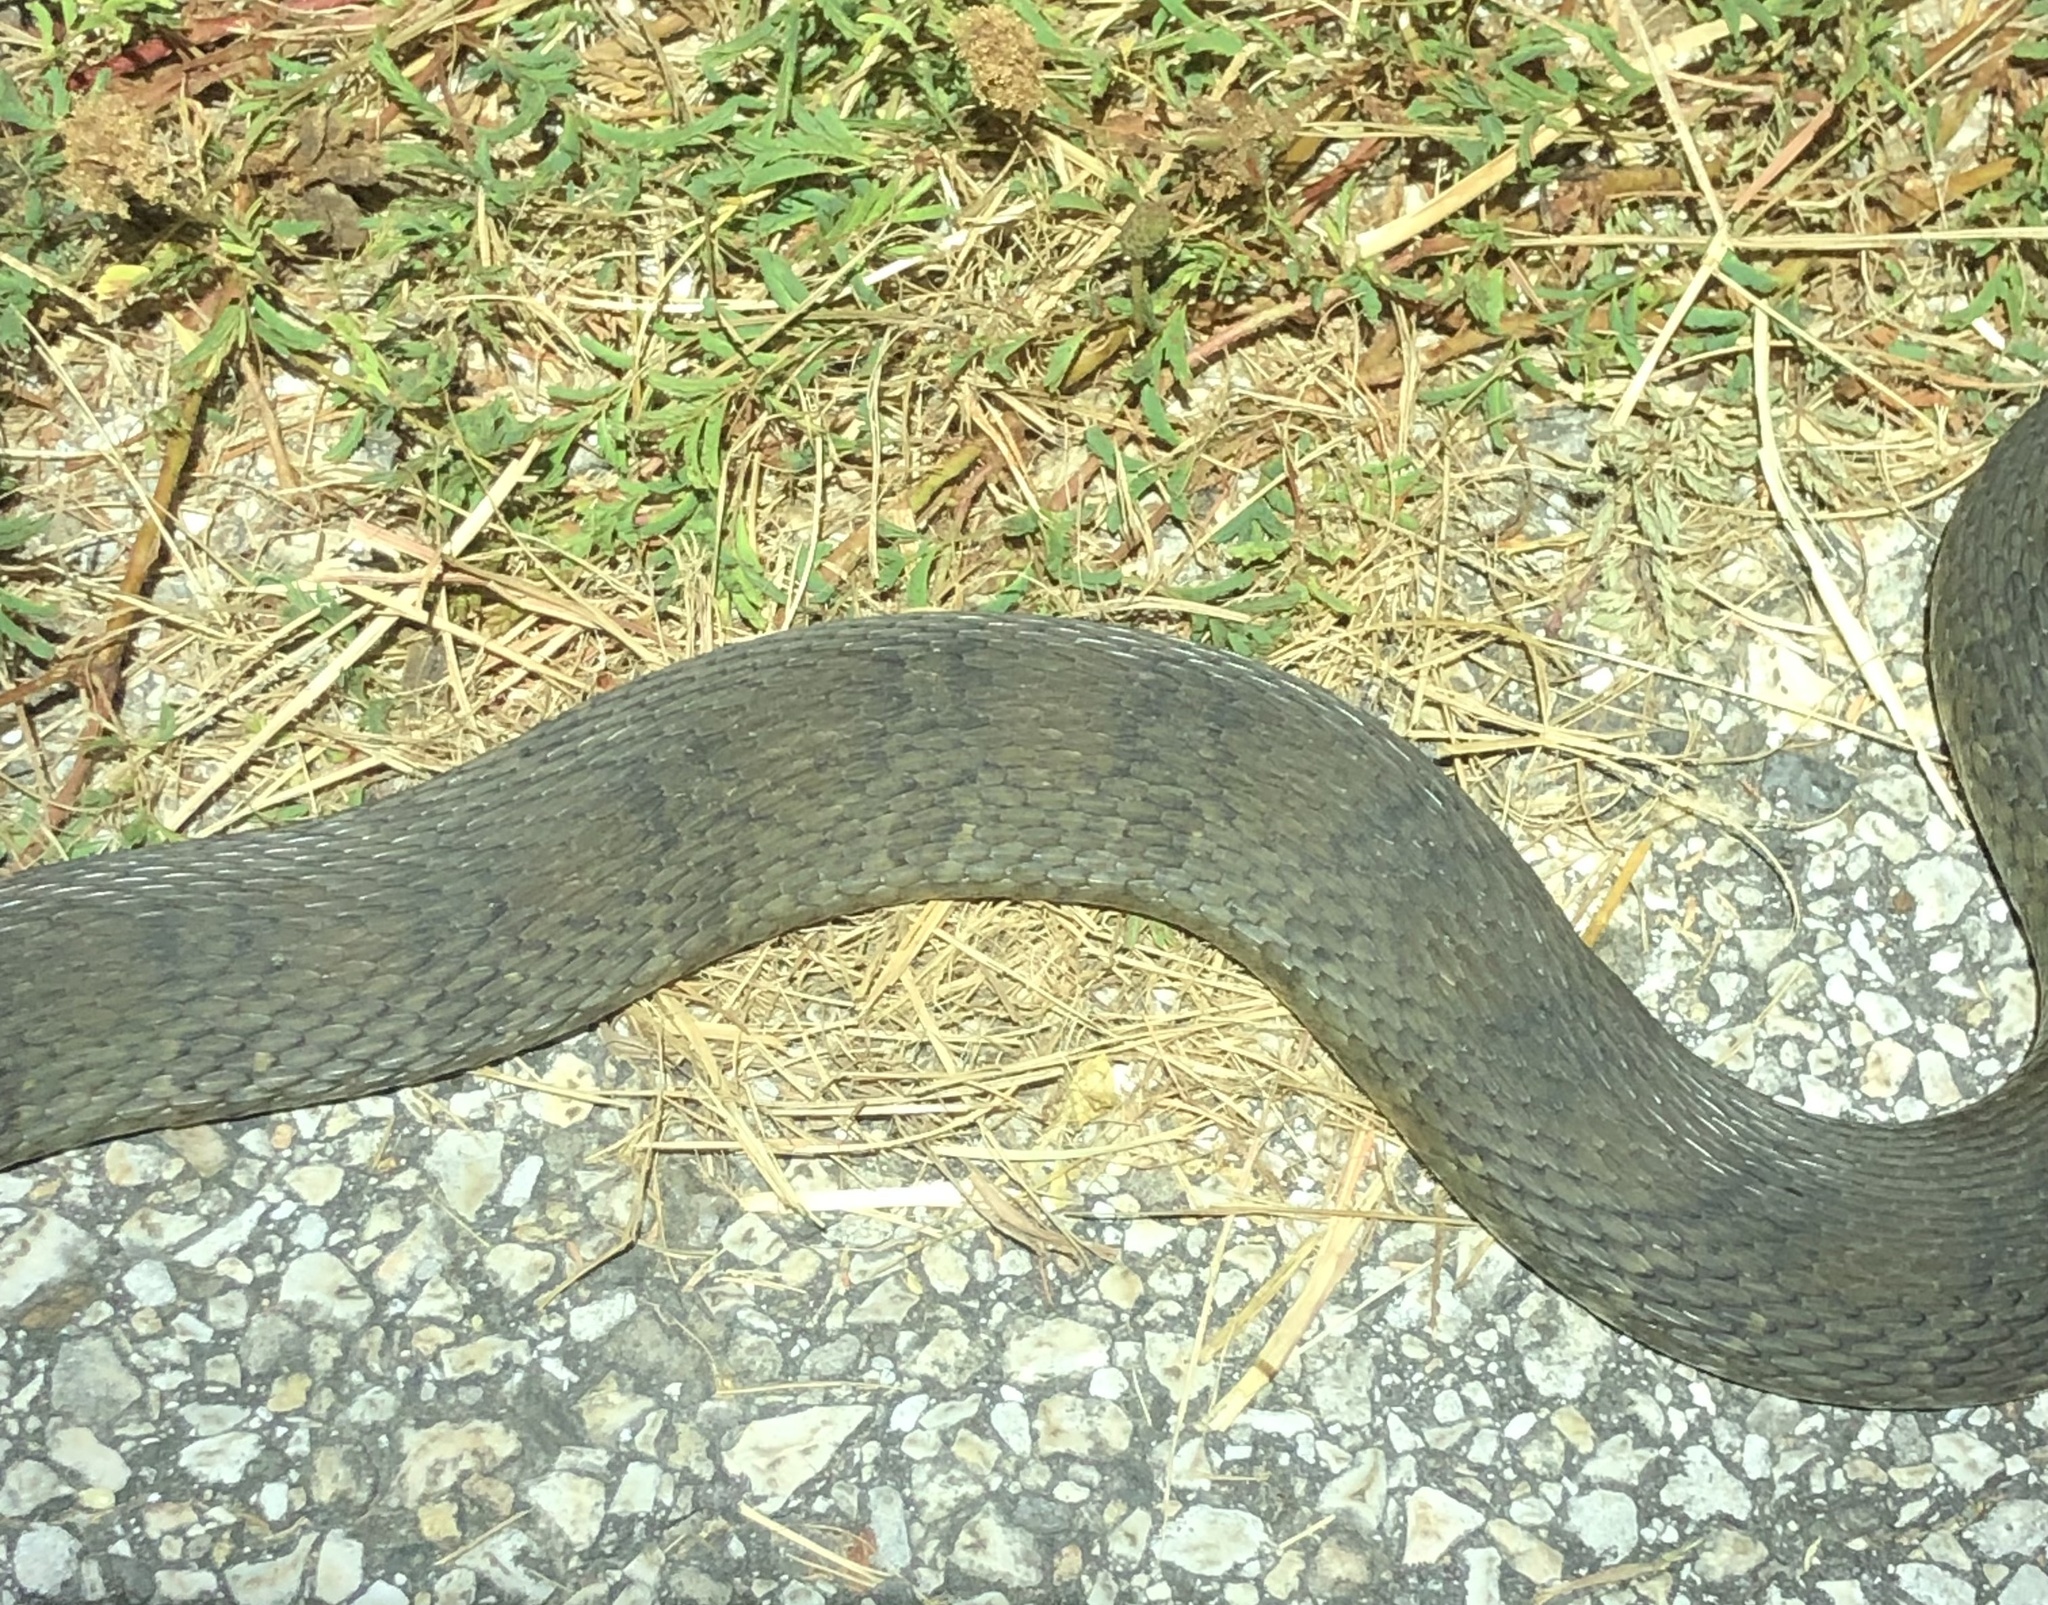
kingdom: Animalia
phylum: Chordata
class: Squamata
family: Colubridae
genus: Nerodia
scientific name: Nerodia erythrogaster
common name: Plainbelly water snake
